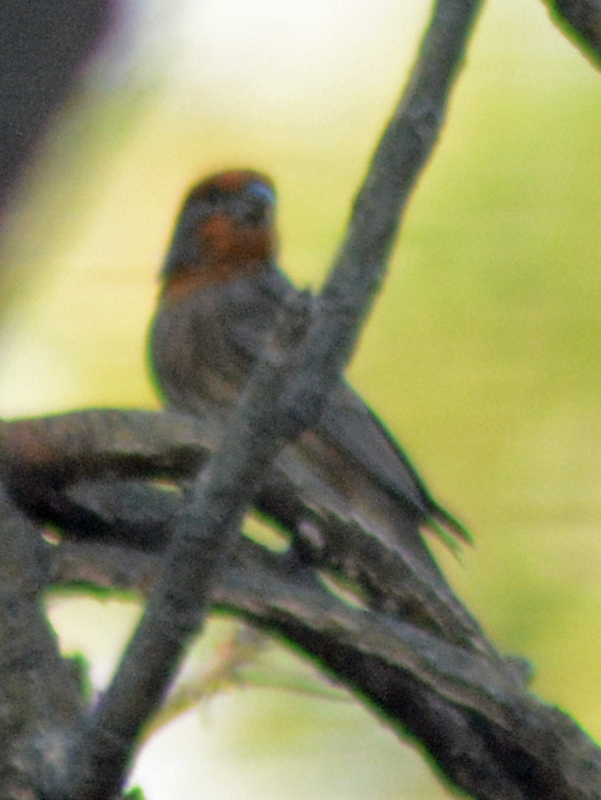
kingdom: Animalia
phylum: Chordata
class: Aves
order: Passeriformes
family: Fringillidae
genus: Haemorhous
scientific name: Haemorhous mexicanus
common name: House finch
